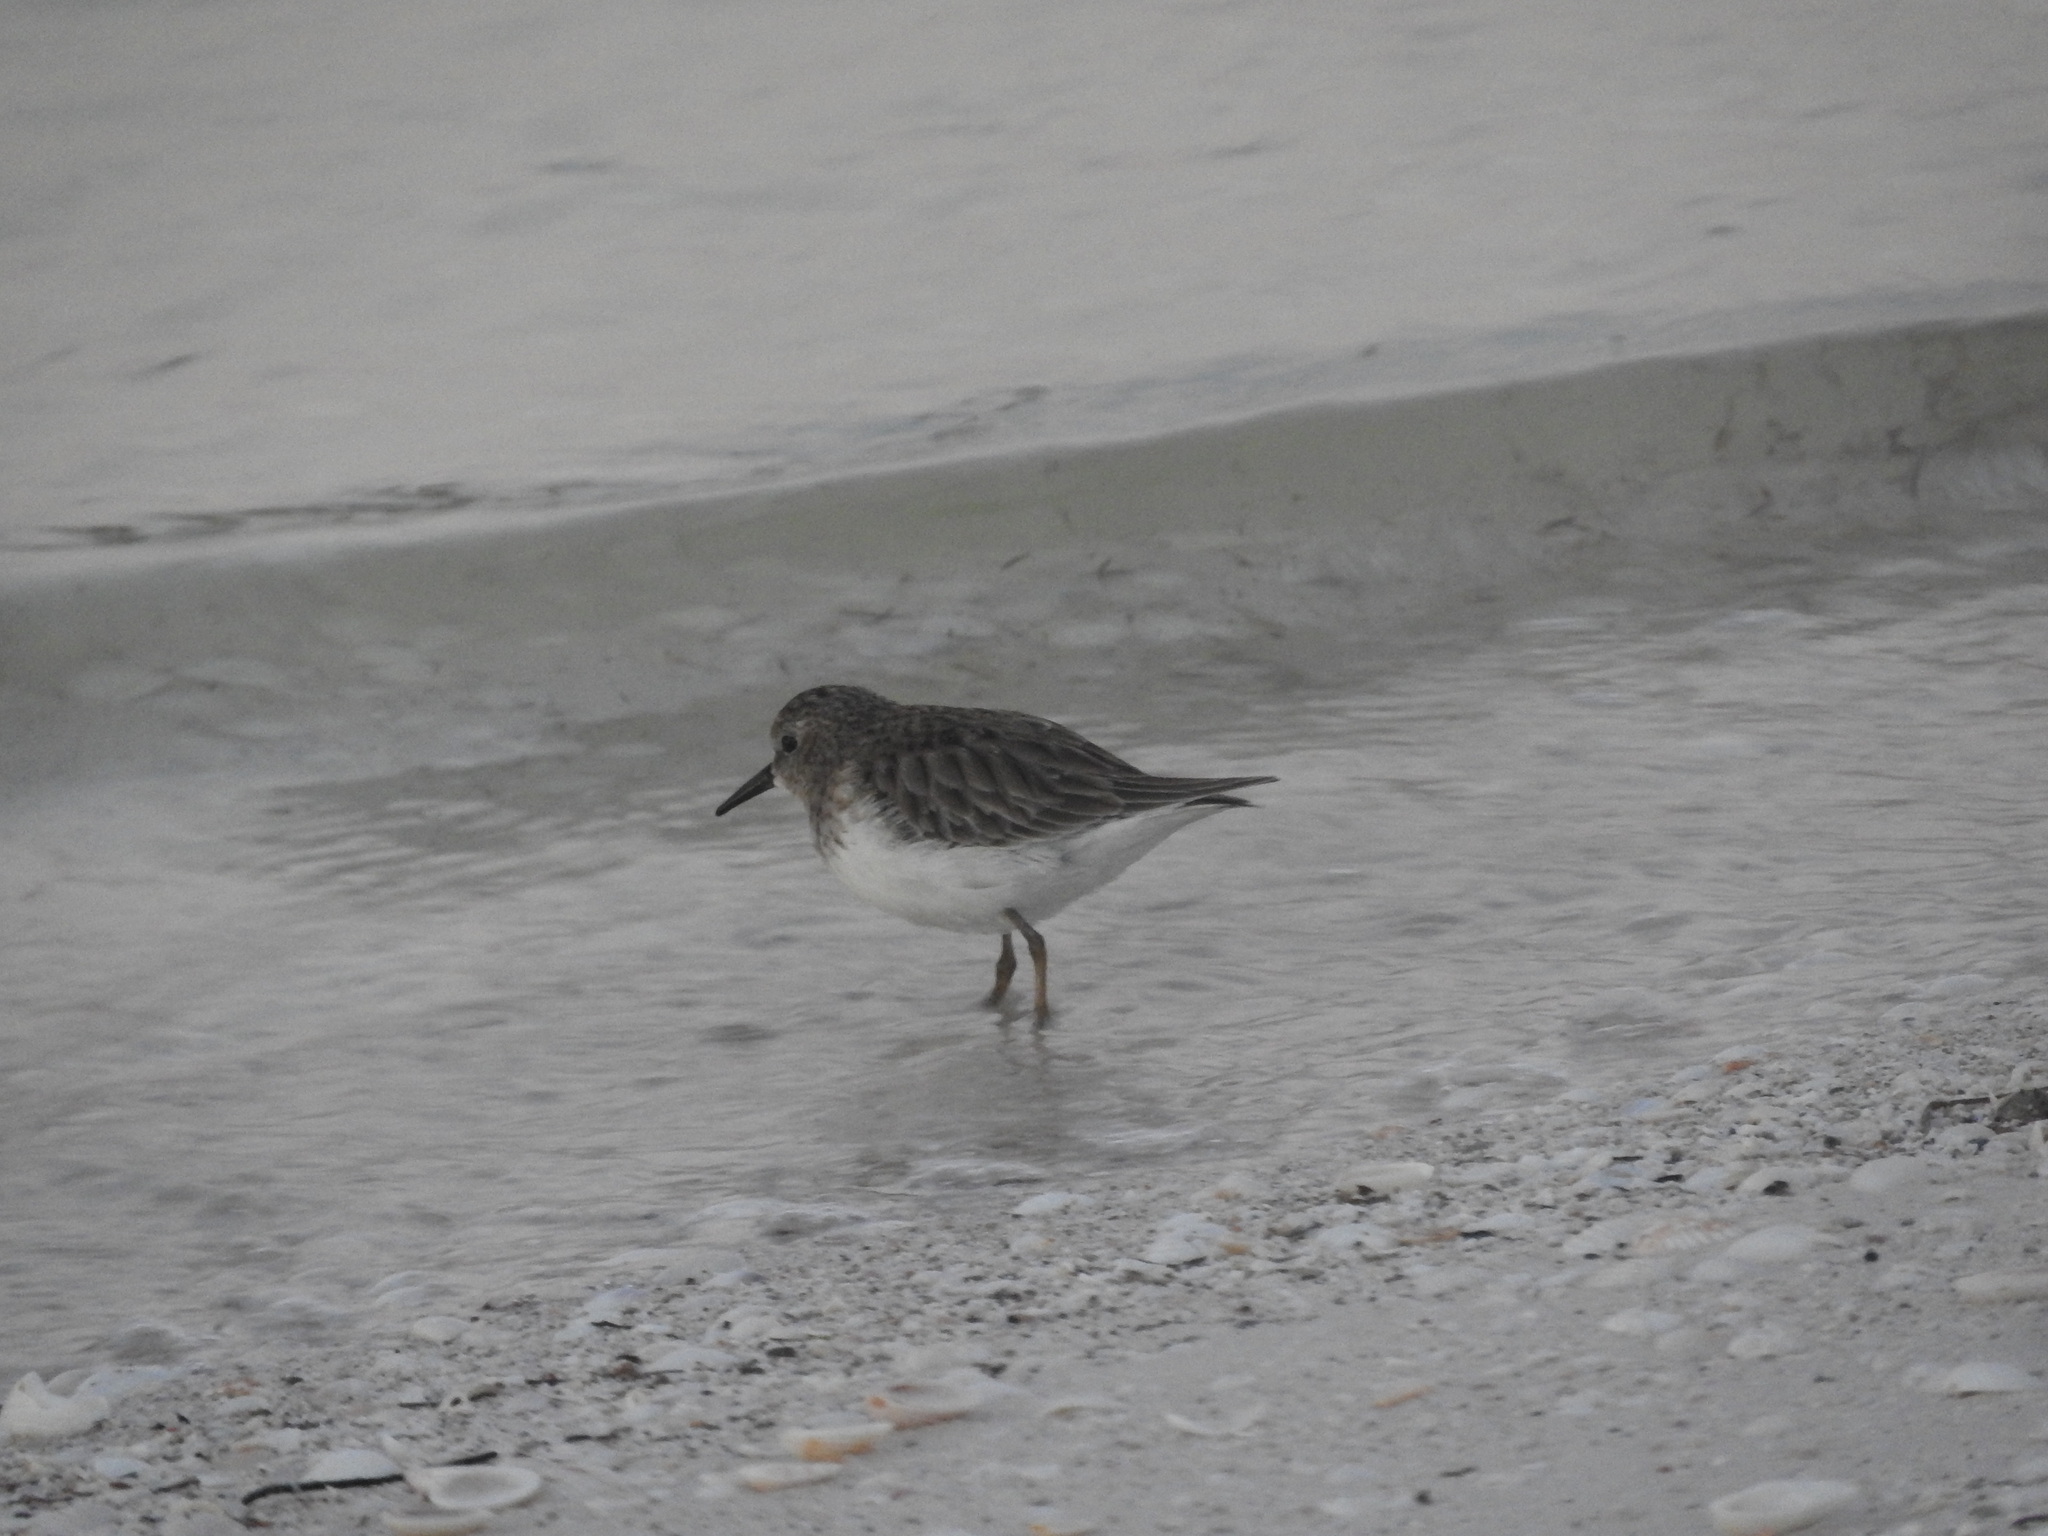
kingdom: Animalia
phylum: Chordata
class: Aves
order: Charadriiformes
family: Scolopacidae
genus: Calidris
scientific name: Calidris minutilla
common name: Least sandpiper
